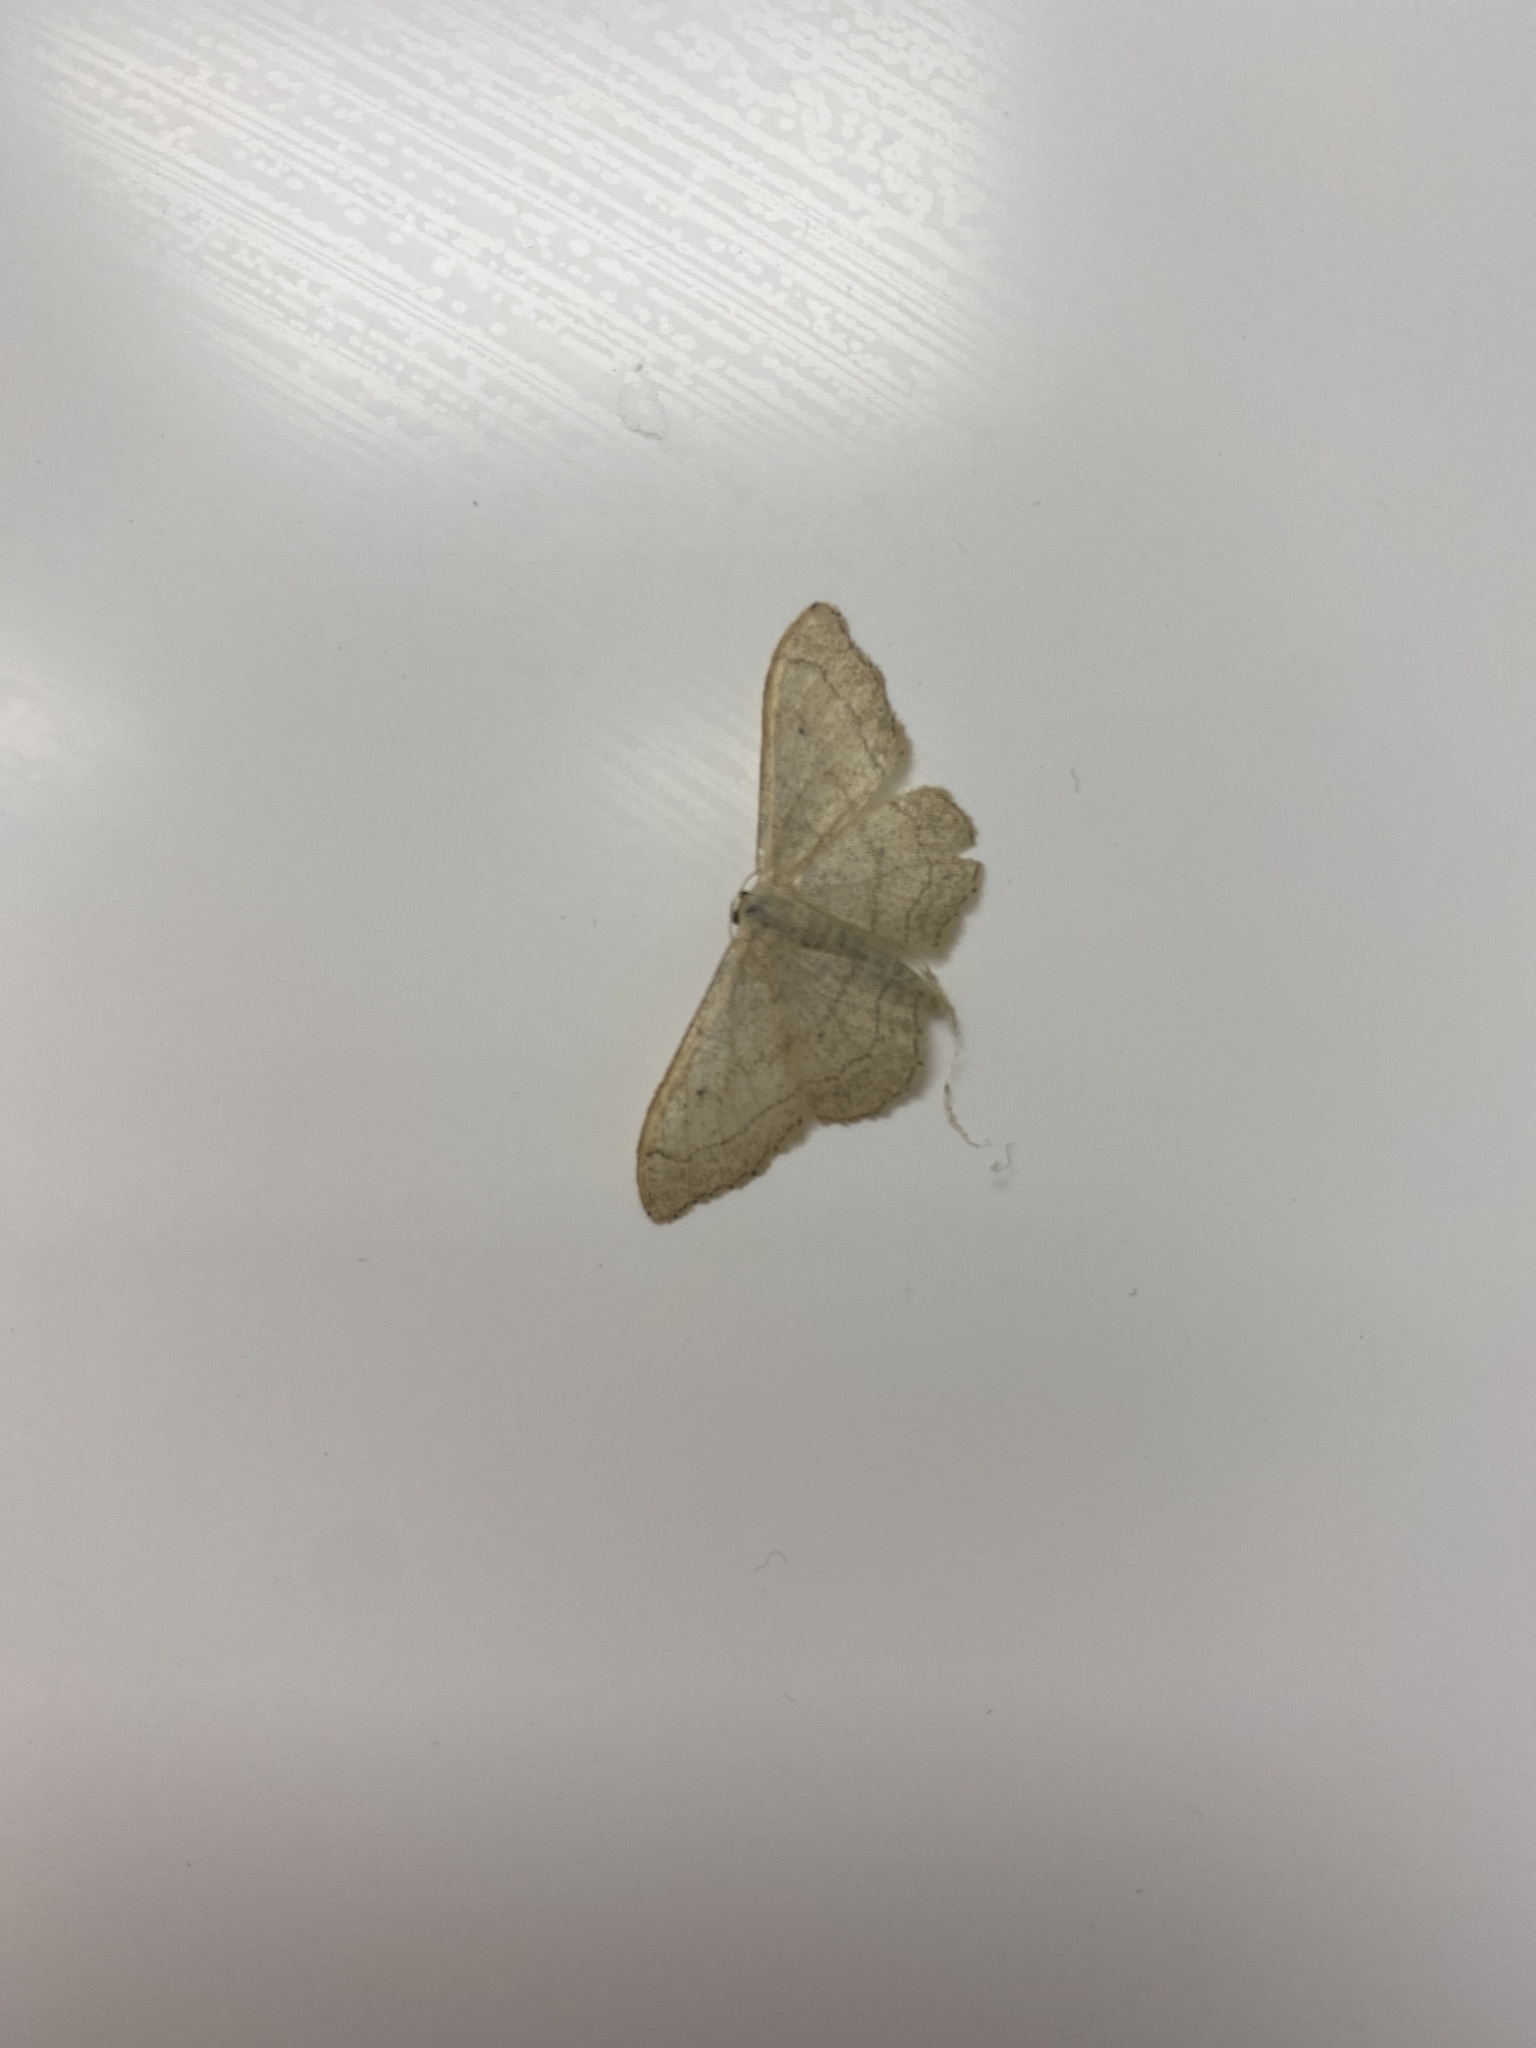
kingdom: Animalia
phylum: Arthropoda
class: Insecta
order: Lepidoptera
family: Geometridae
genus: Idaea
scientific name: Idaea aversata
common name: Riband wave
